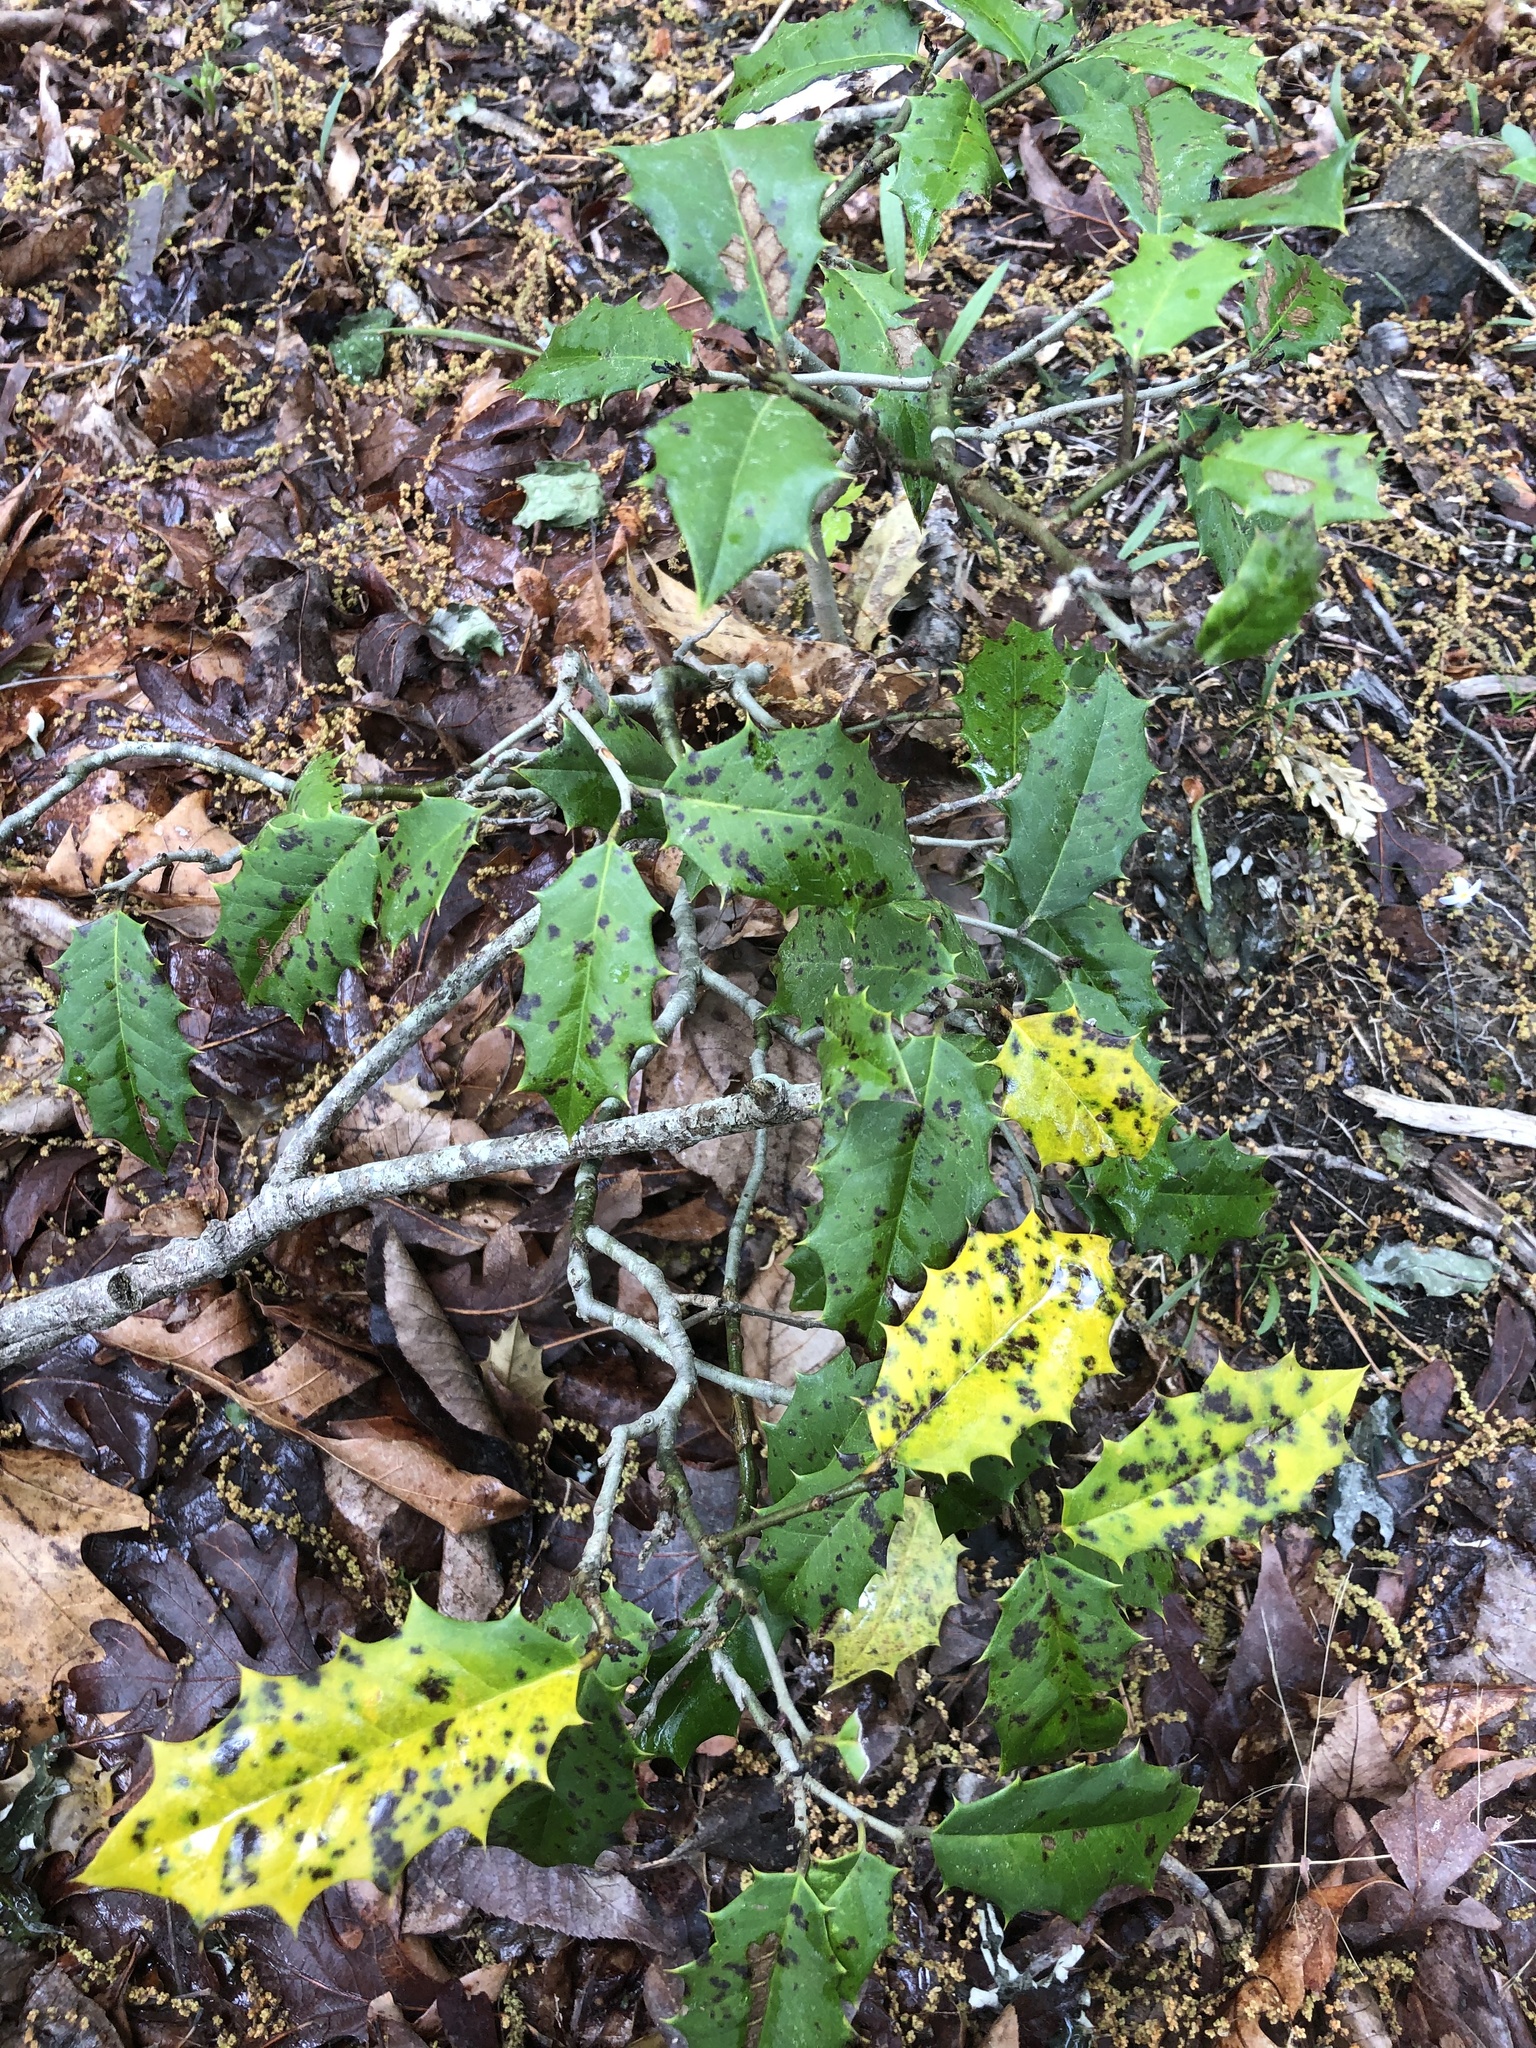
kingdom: Plantae
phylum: Tracheophyta
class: Magnoliopsida
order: Aquifoliales
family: Aquifoliaceae
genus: Ilex
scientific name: Ilex opaca
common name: American holly
